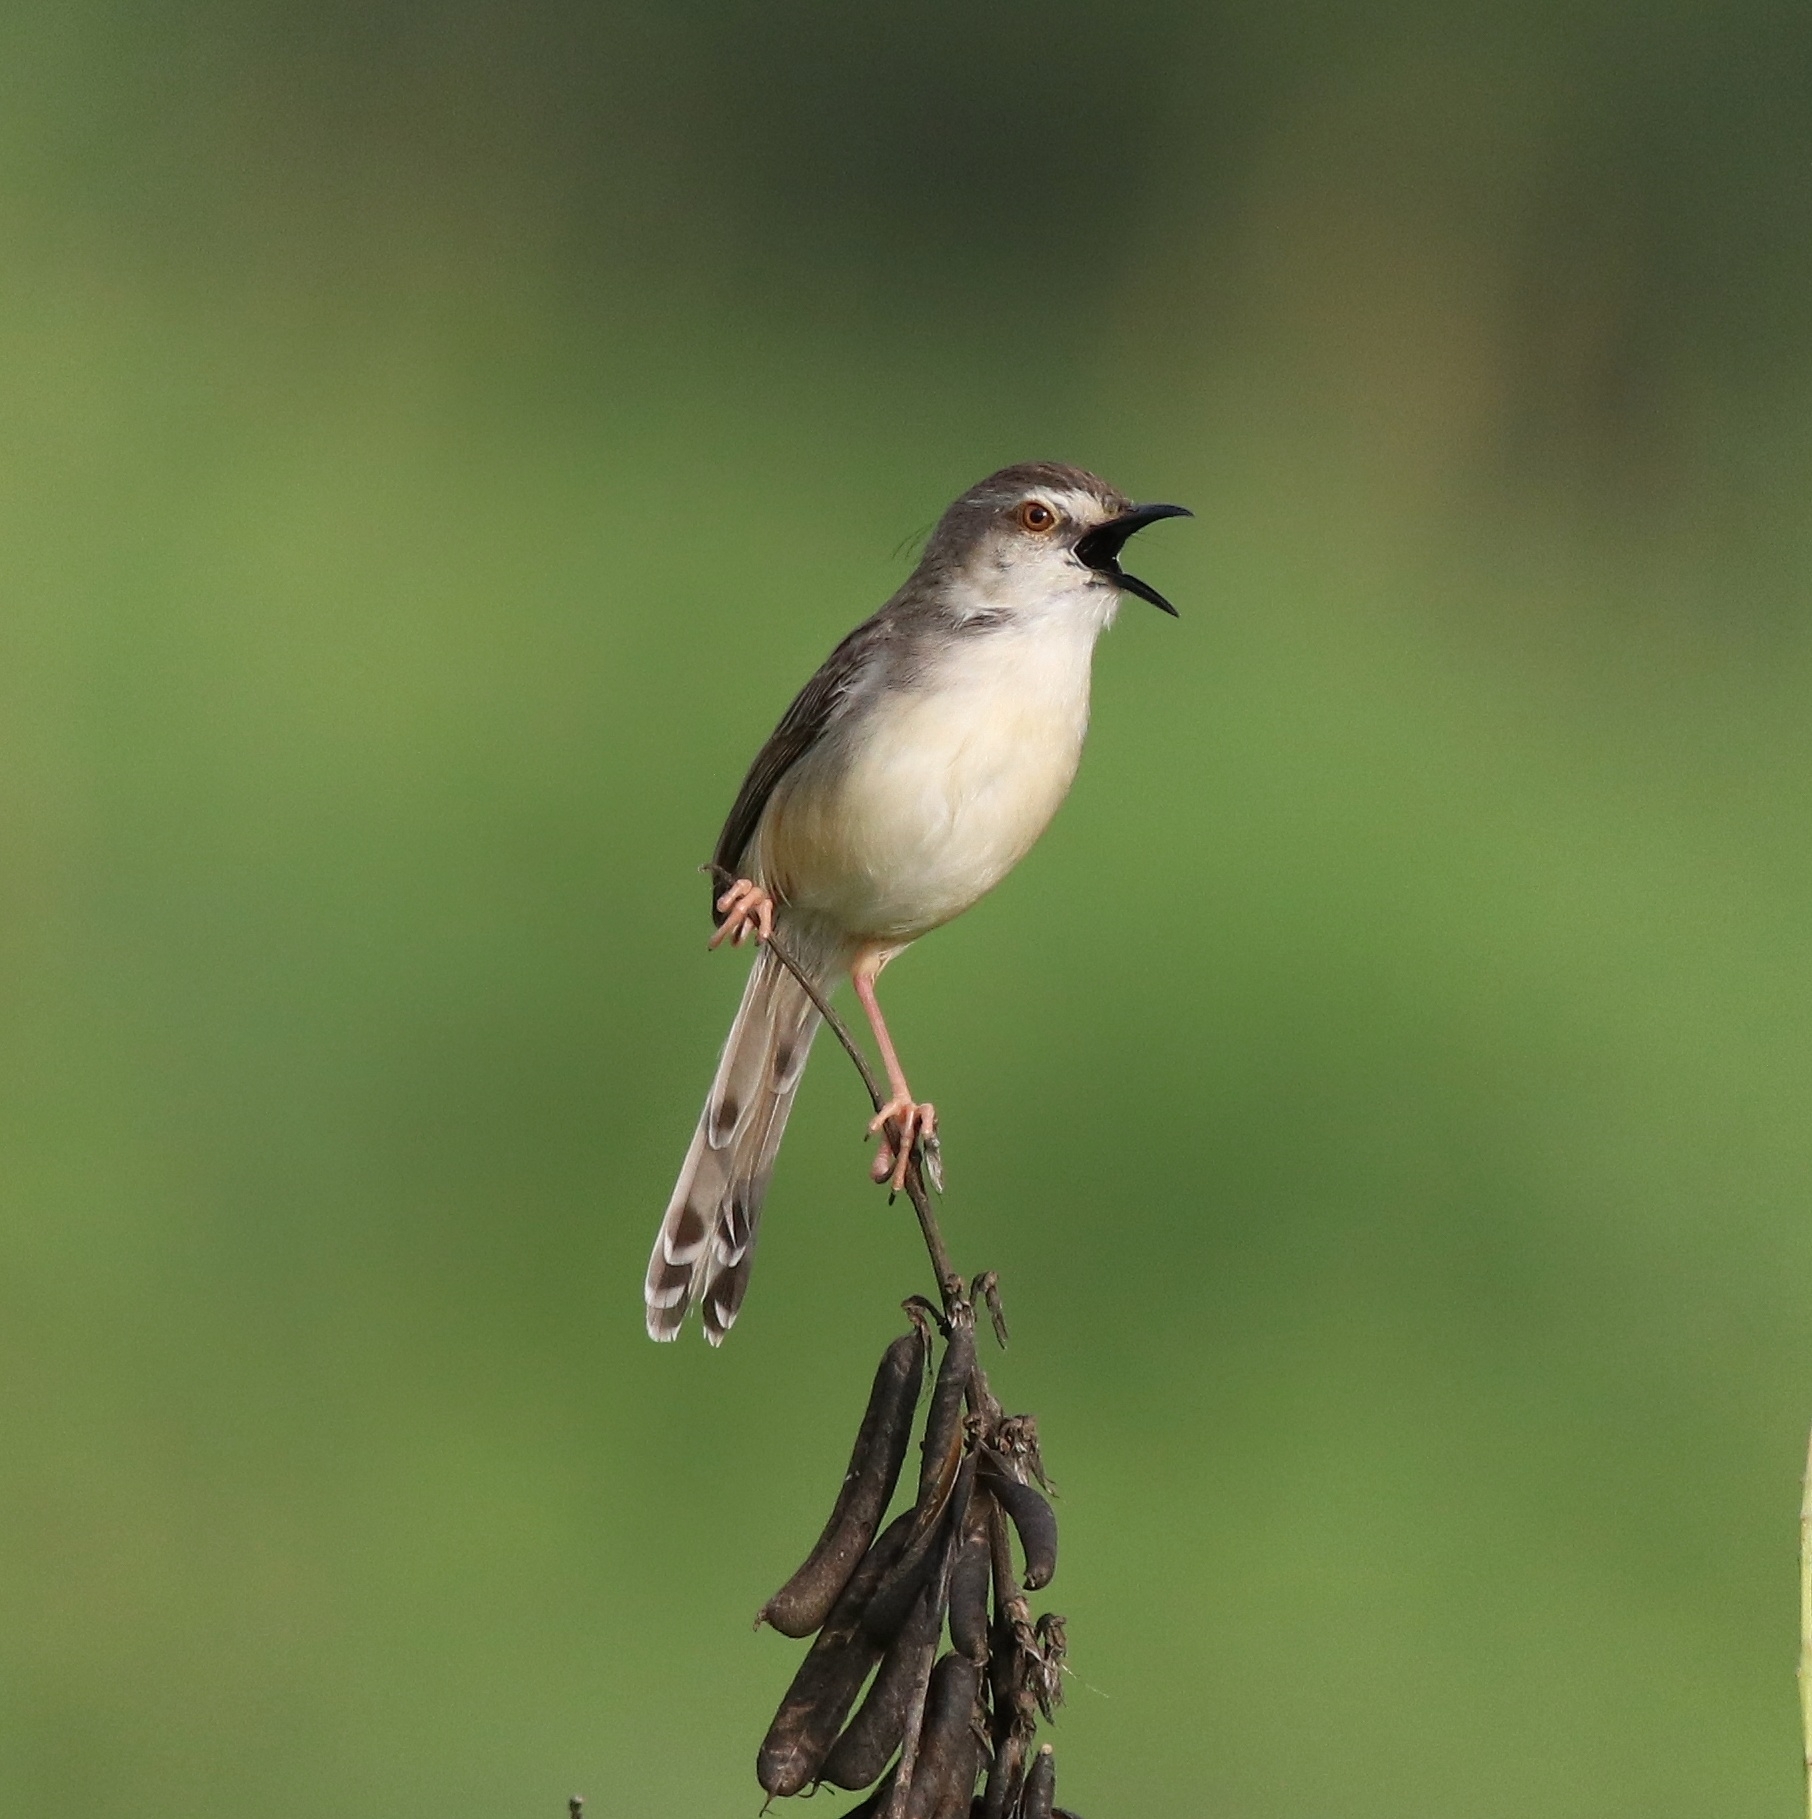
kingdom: Animalia
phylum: Chordata
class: Aves
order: Passeriformes
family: Cisticolidae
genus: Prinia
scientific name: Prinia inornata
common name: Plain prinia
